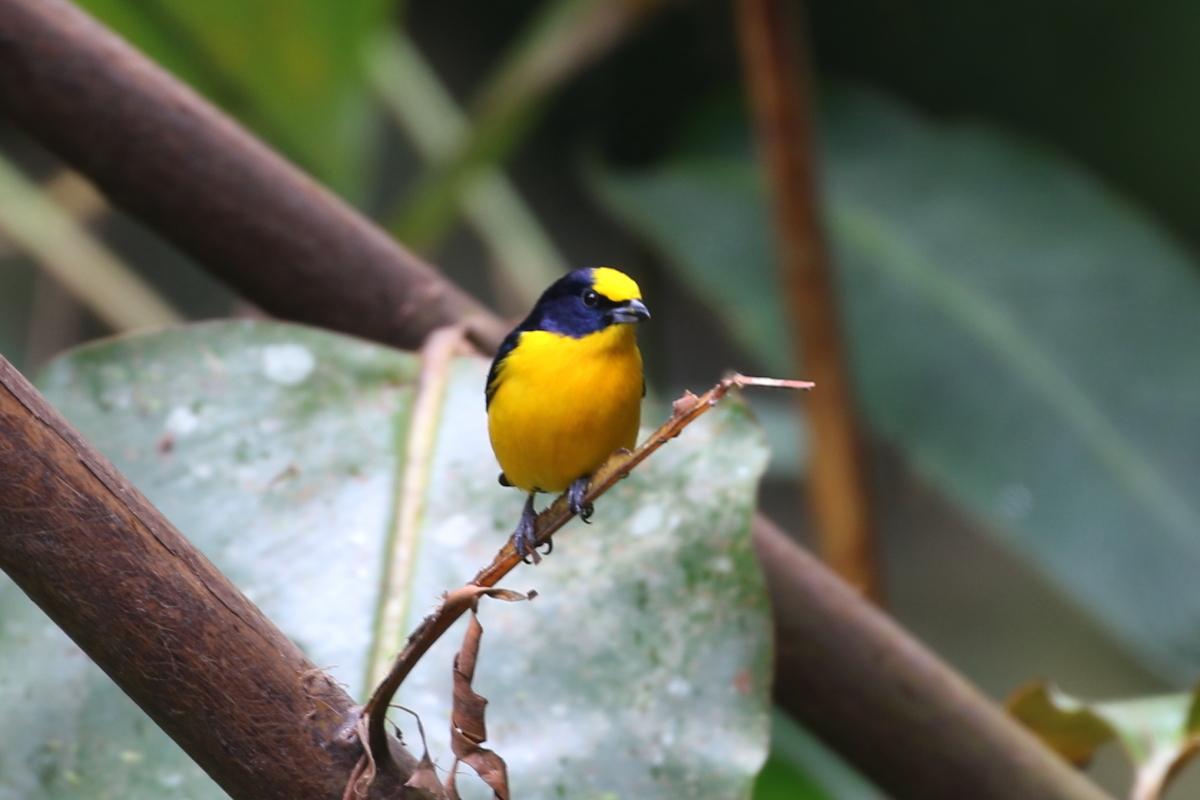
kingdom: Animalia
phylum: Chordata
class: Aves
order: Passeriformes
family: Fringillidae
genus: Euphonia
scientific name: Euphonia laniirostris
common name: Thick-billed euphonia
